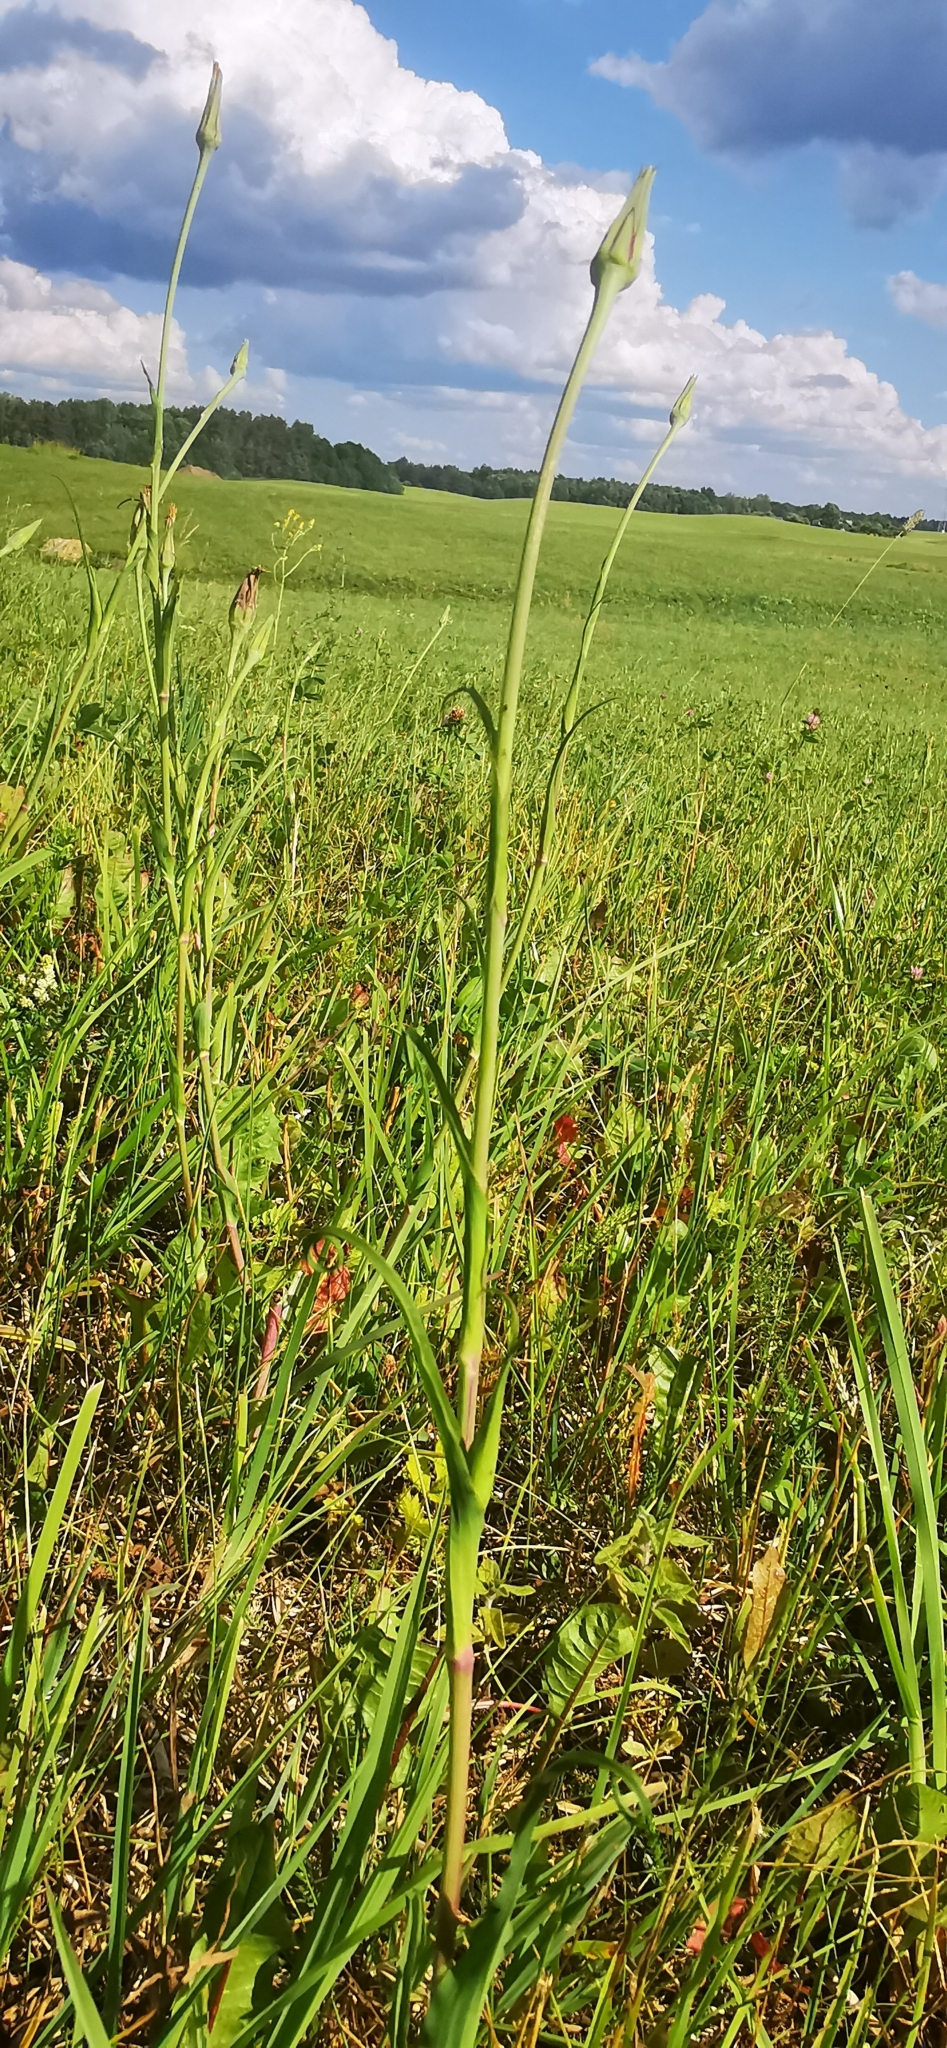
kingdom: Plantae
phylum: Tracheophyta
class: Magnoliopsida
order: Asterales
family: Asteraceae
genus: Tragopogon
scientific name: Tragopogon pratensis
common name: Goat's-beard
